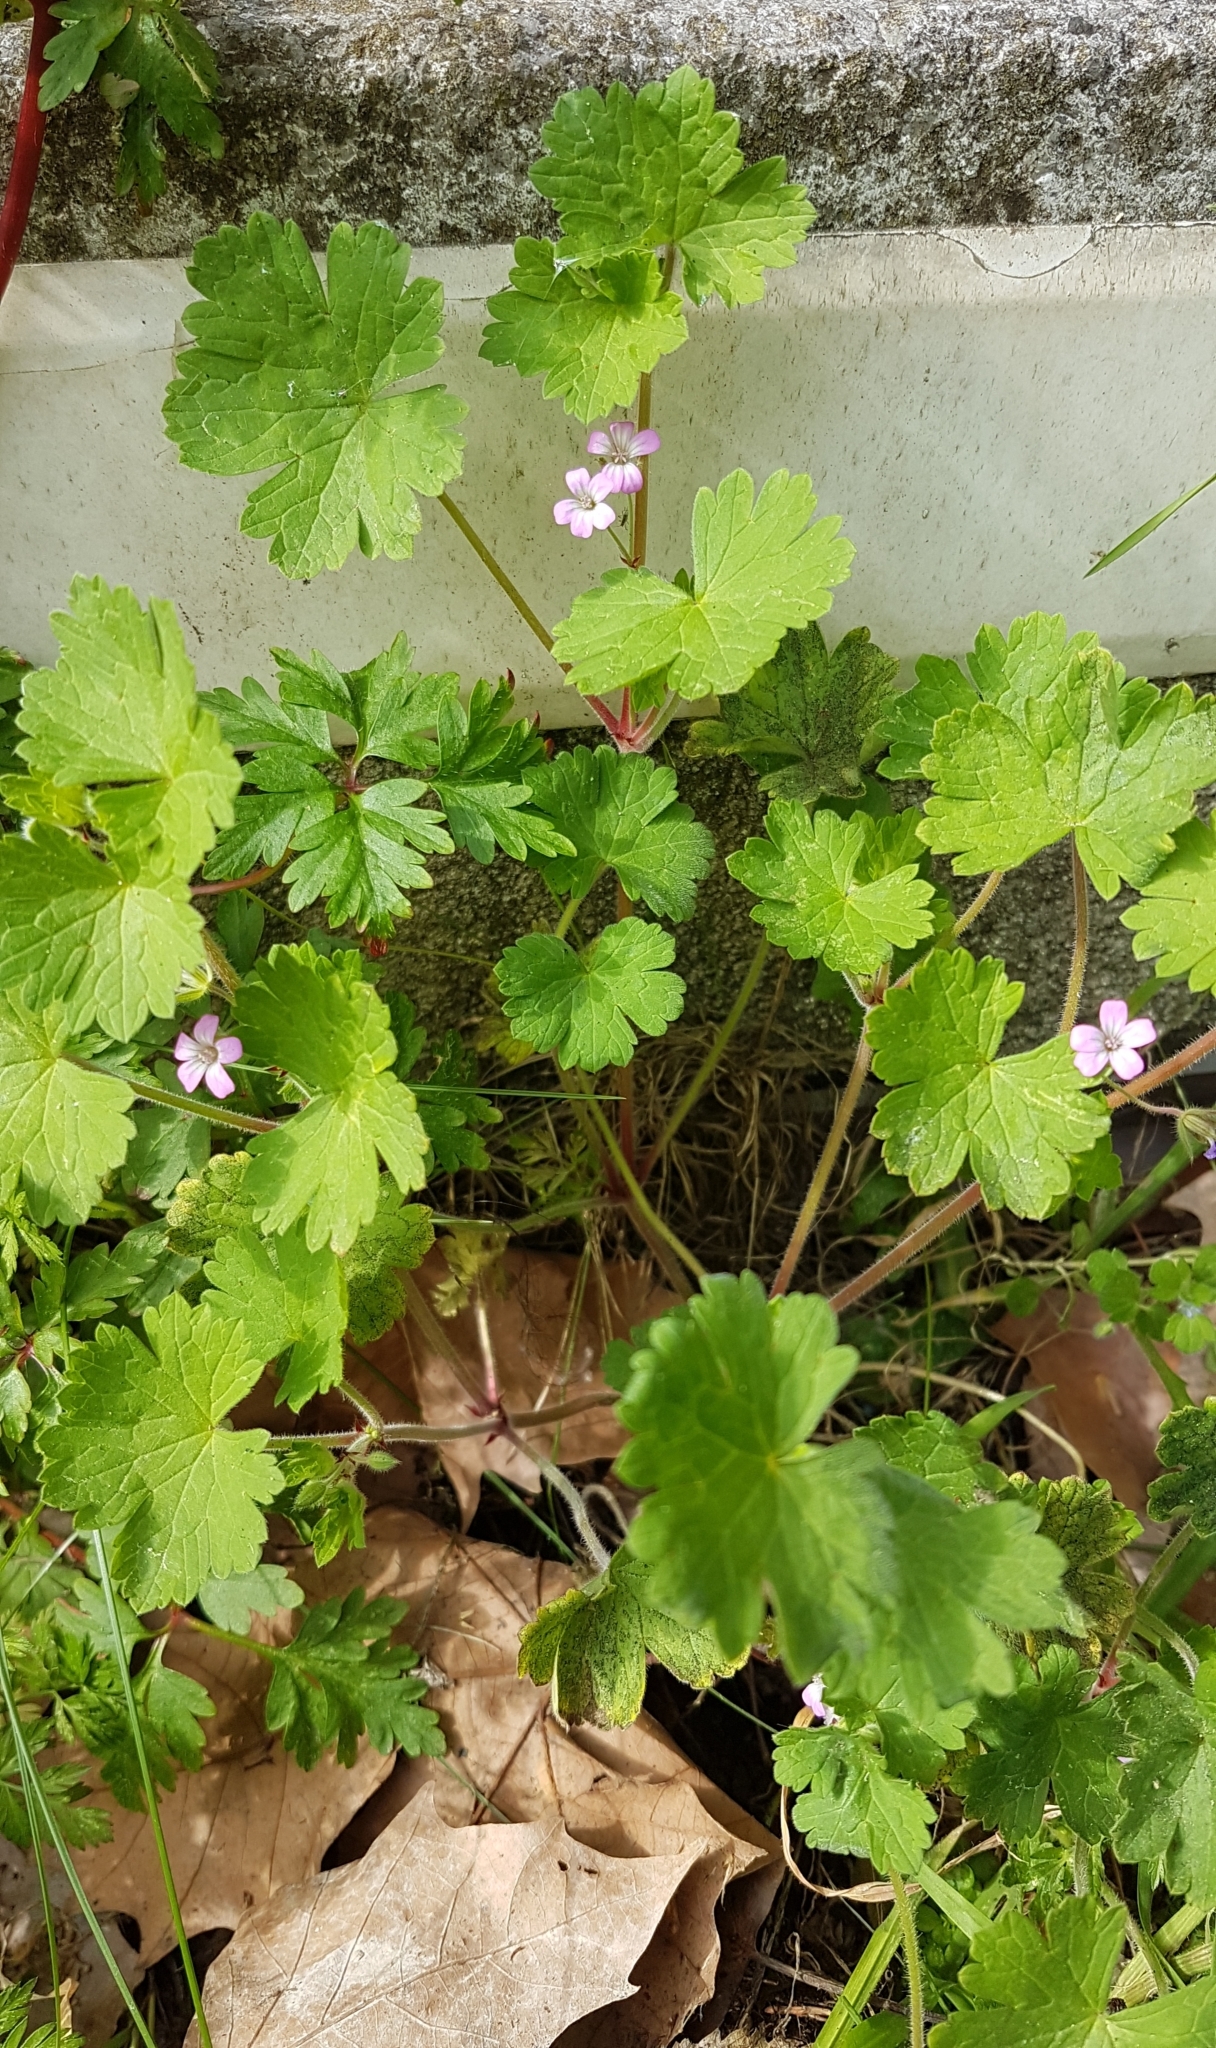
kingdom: Plantae
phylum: Tracheophyta
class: Magnoliopsida
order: Geraniales
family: Geraniaceae
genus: Geranium
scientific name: Geranium rotundifolium
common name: Round-leaved crane's-bill
